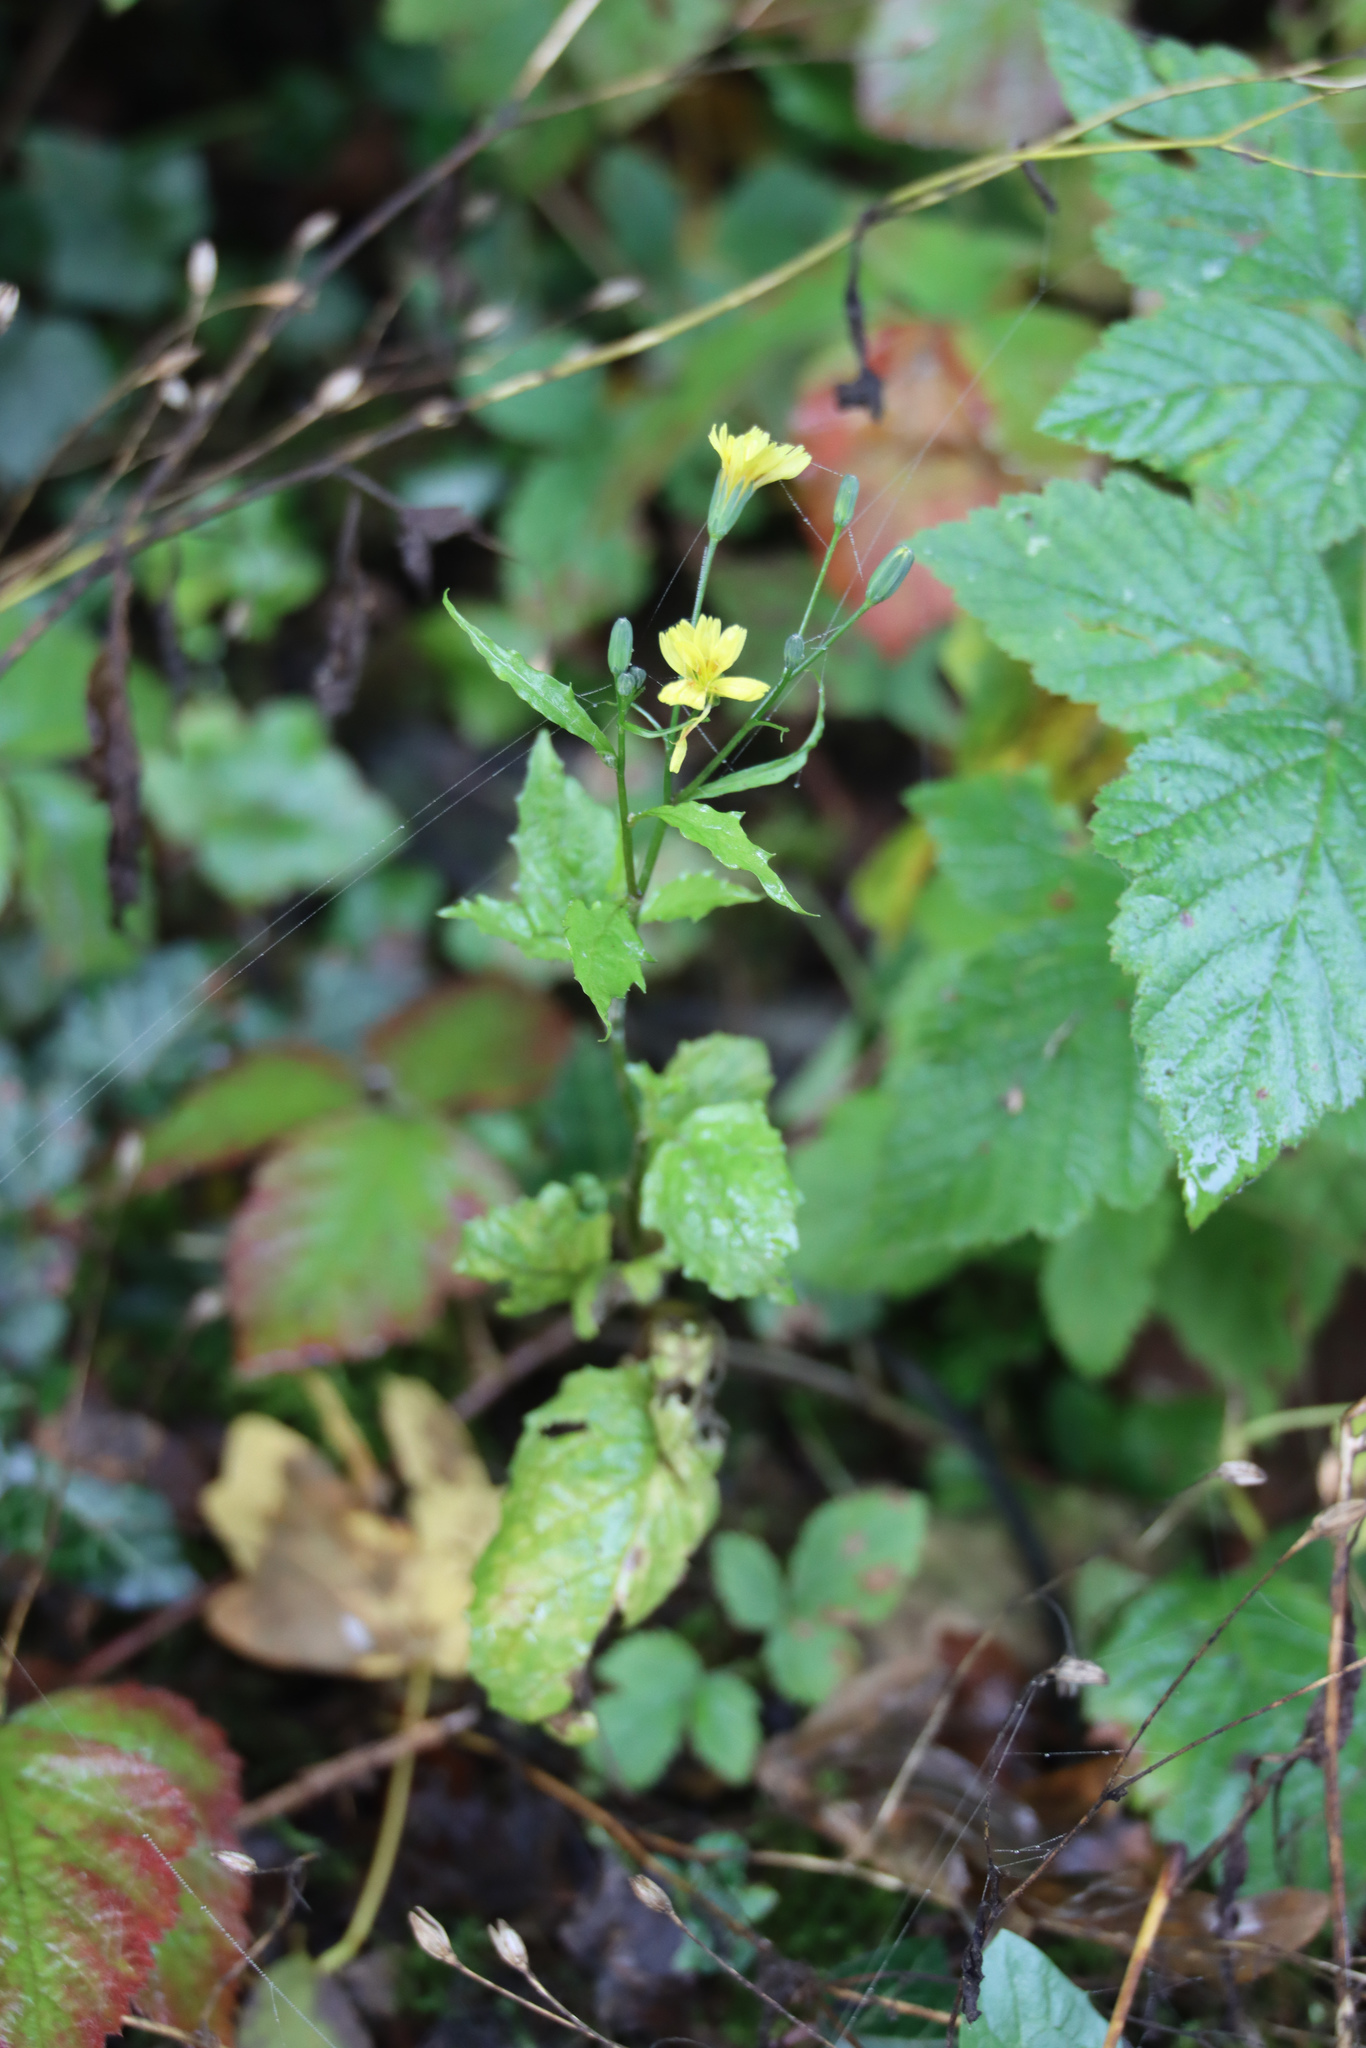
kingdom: Plantae
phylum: Tracheophyta
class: Magnoliopsida
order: Asterales
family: Asteraceae
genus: Lapsana
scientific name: Lapsana communis
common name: Nipplewort
